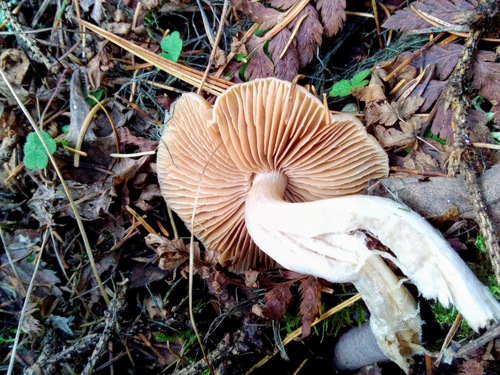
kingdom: Fungi
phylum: Basidiomycota
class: Agaricomycetes
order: Agaricales
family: Cortinariaceae
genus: Cortinarius
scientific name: Cortinarius
